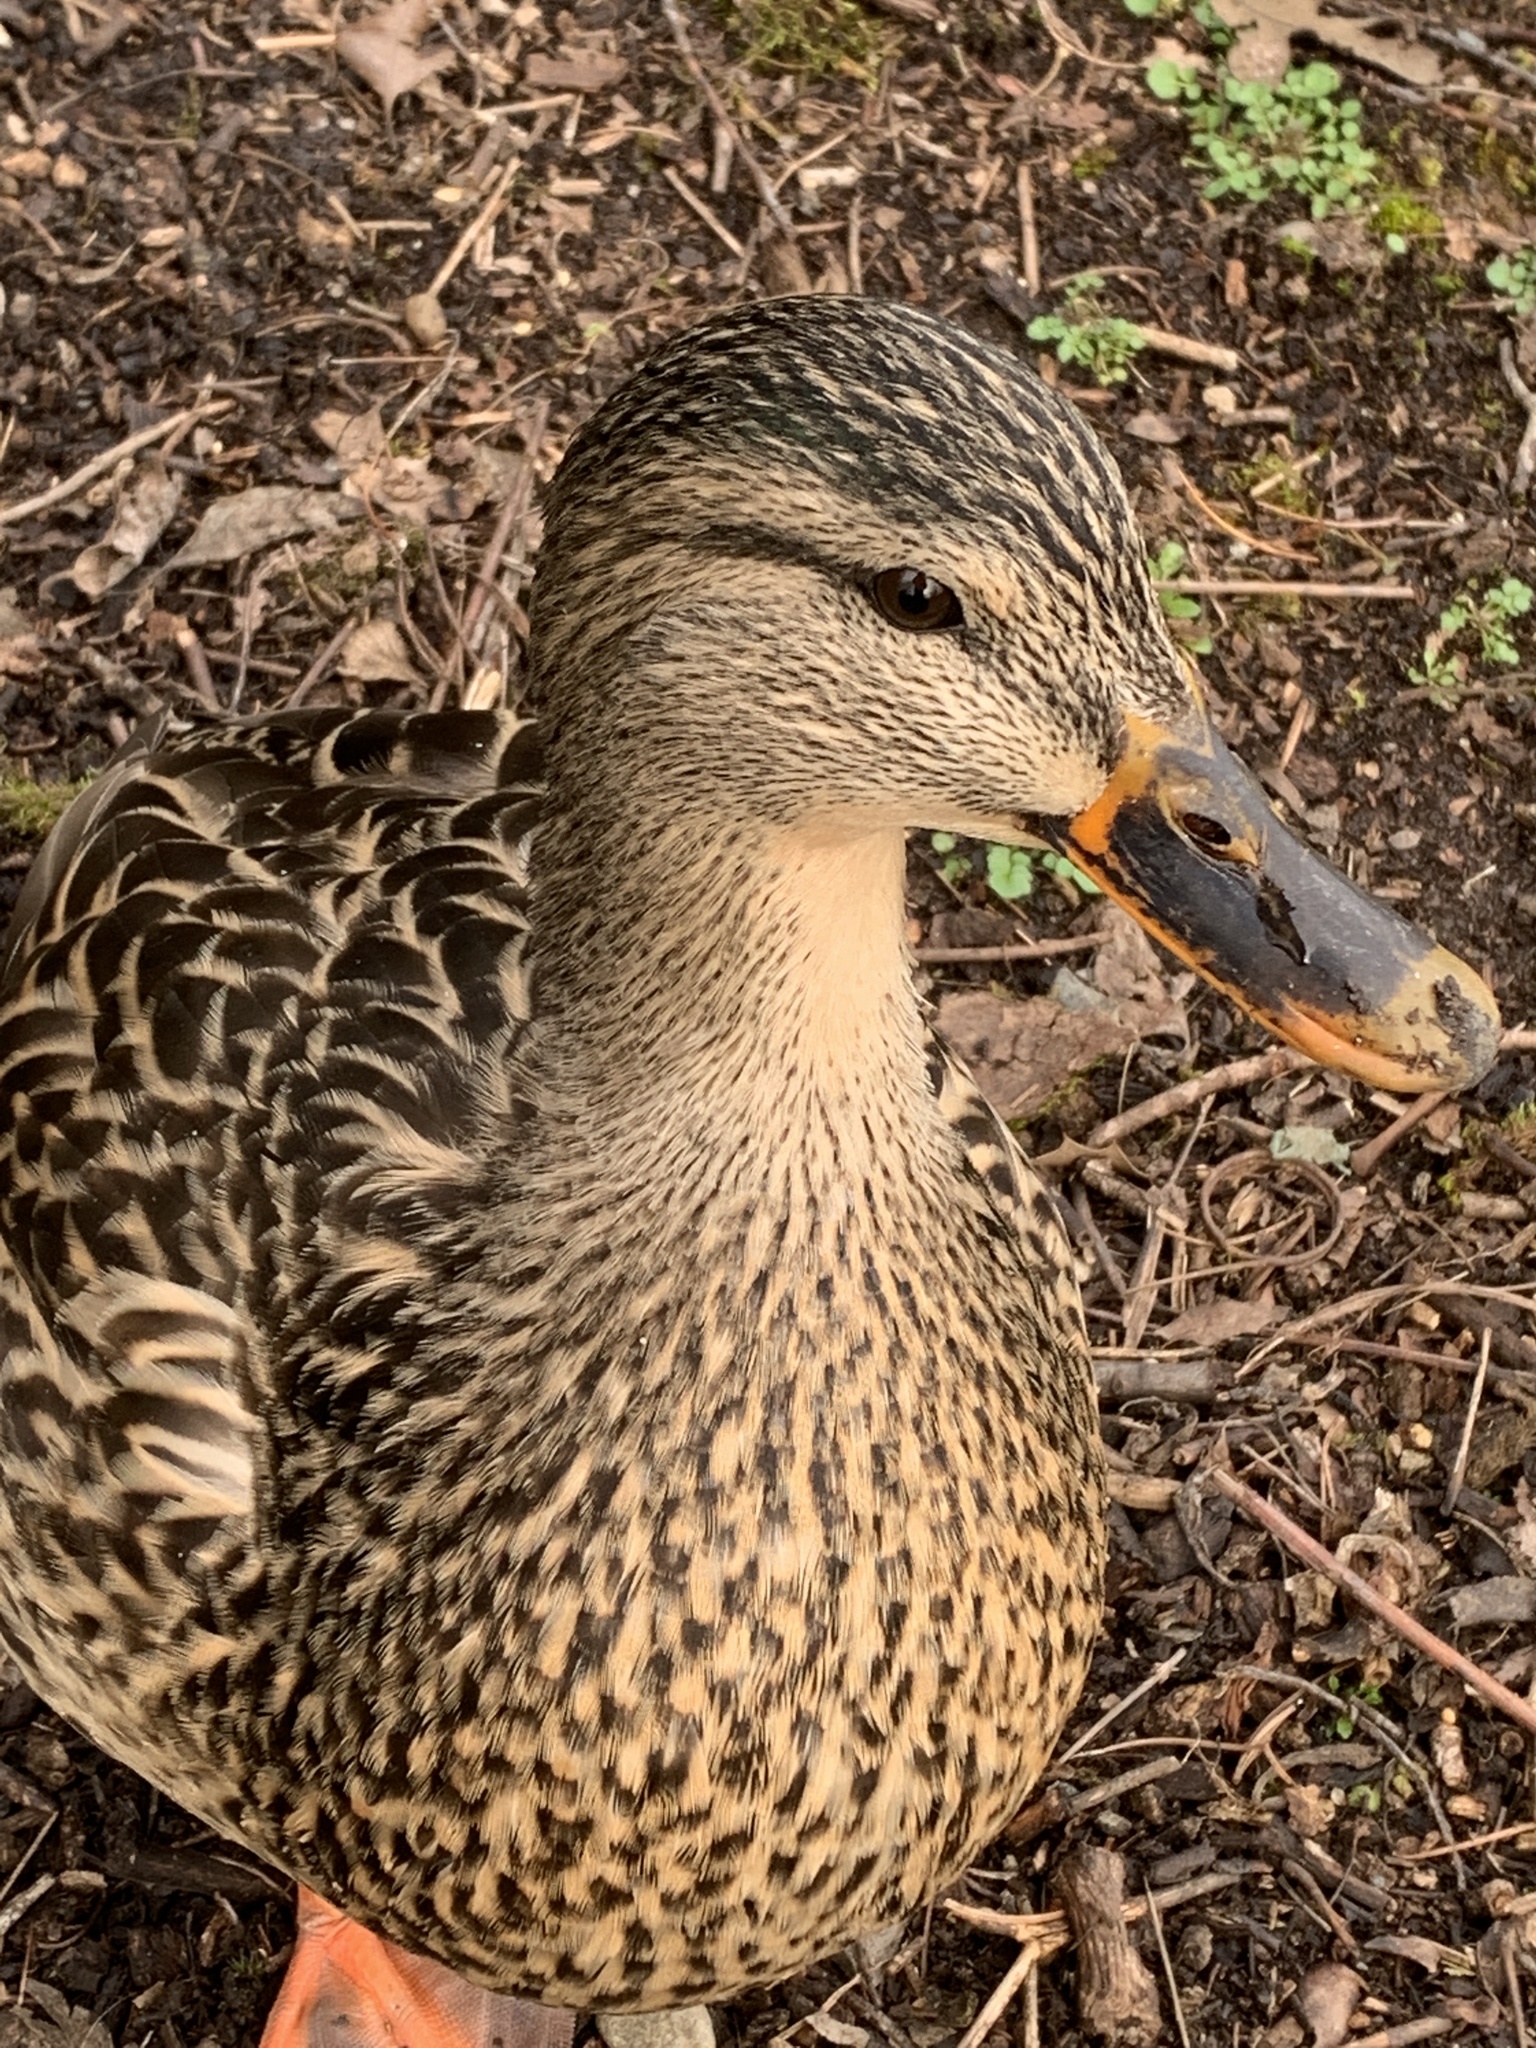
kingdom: Animalia
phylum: Chordata
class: Aves
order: Anseriformes
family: Anatidae
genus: Anas
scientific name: Anas platyrhynchos
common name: Mallard
